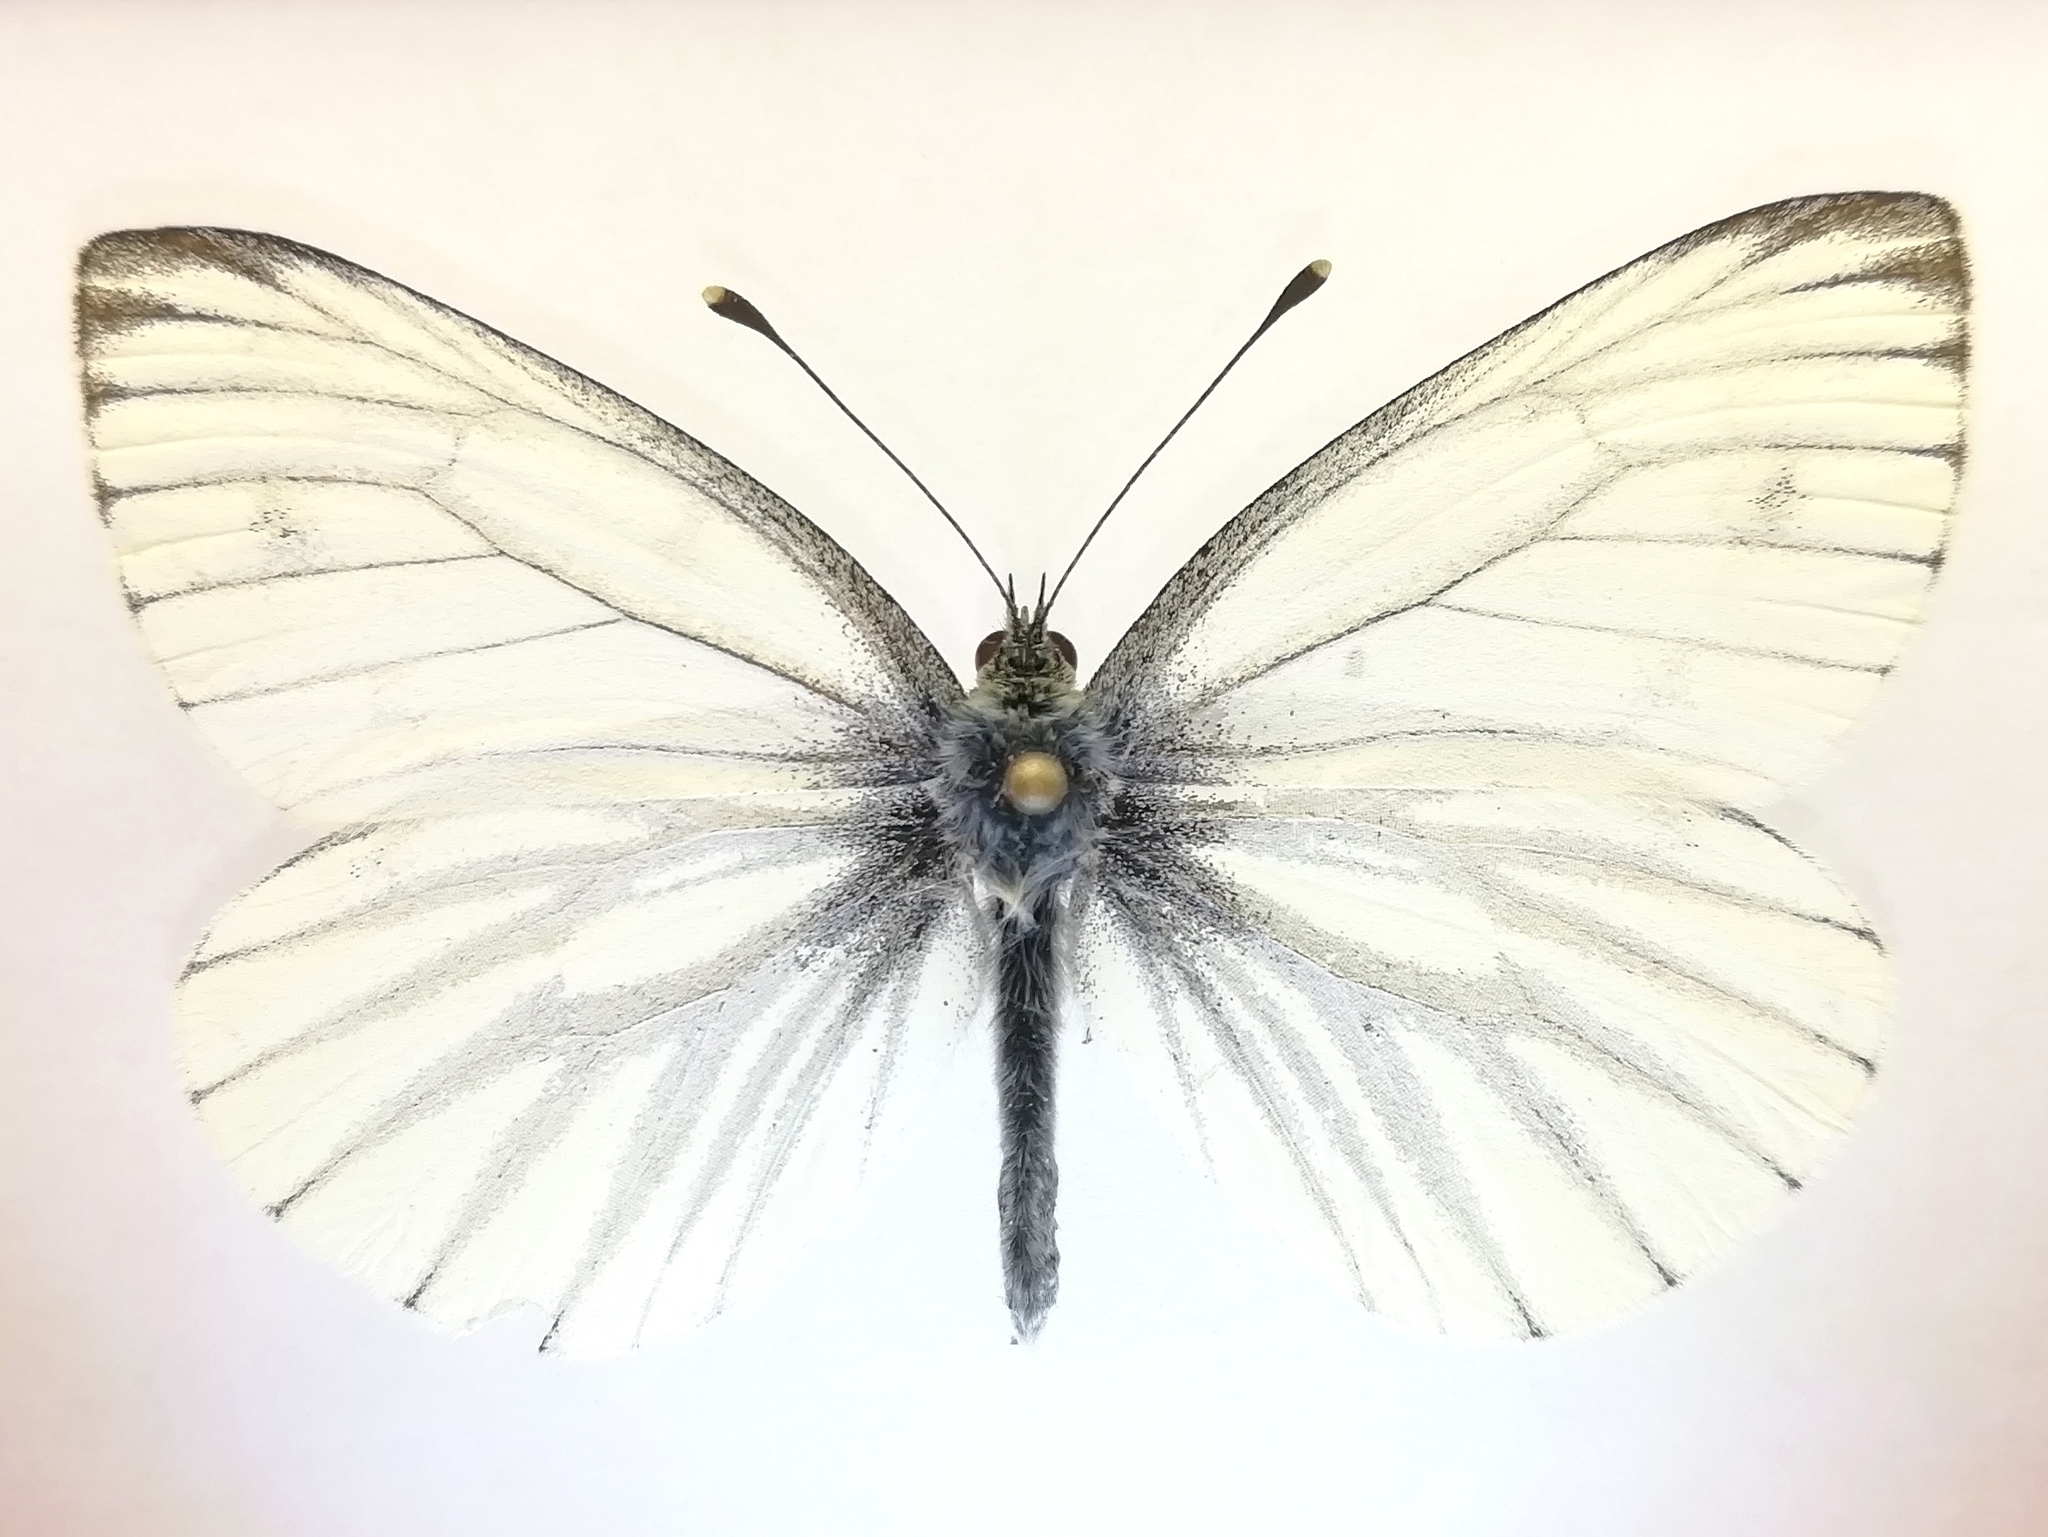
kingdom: Animalia
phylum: Arthropoda
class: Insecta
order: Lepidoptera
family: Pieridae
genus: Pieris
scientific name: Pieris napi
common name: Green-veined white
